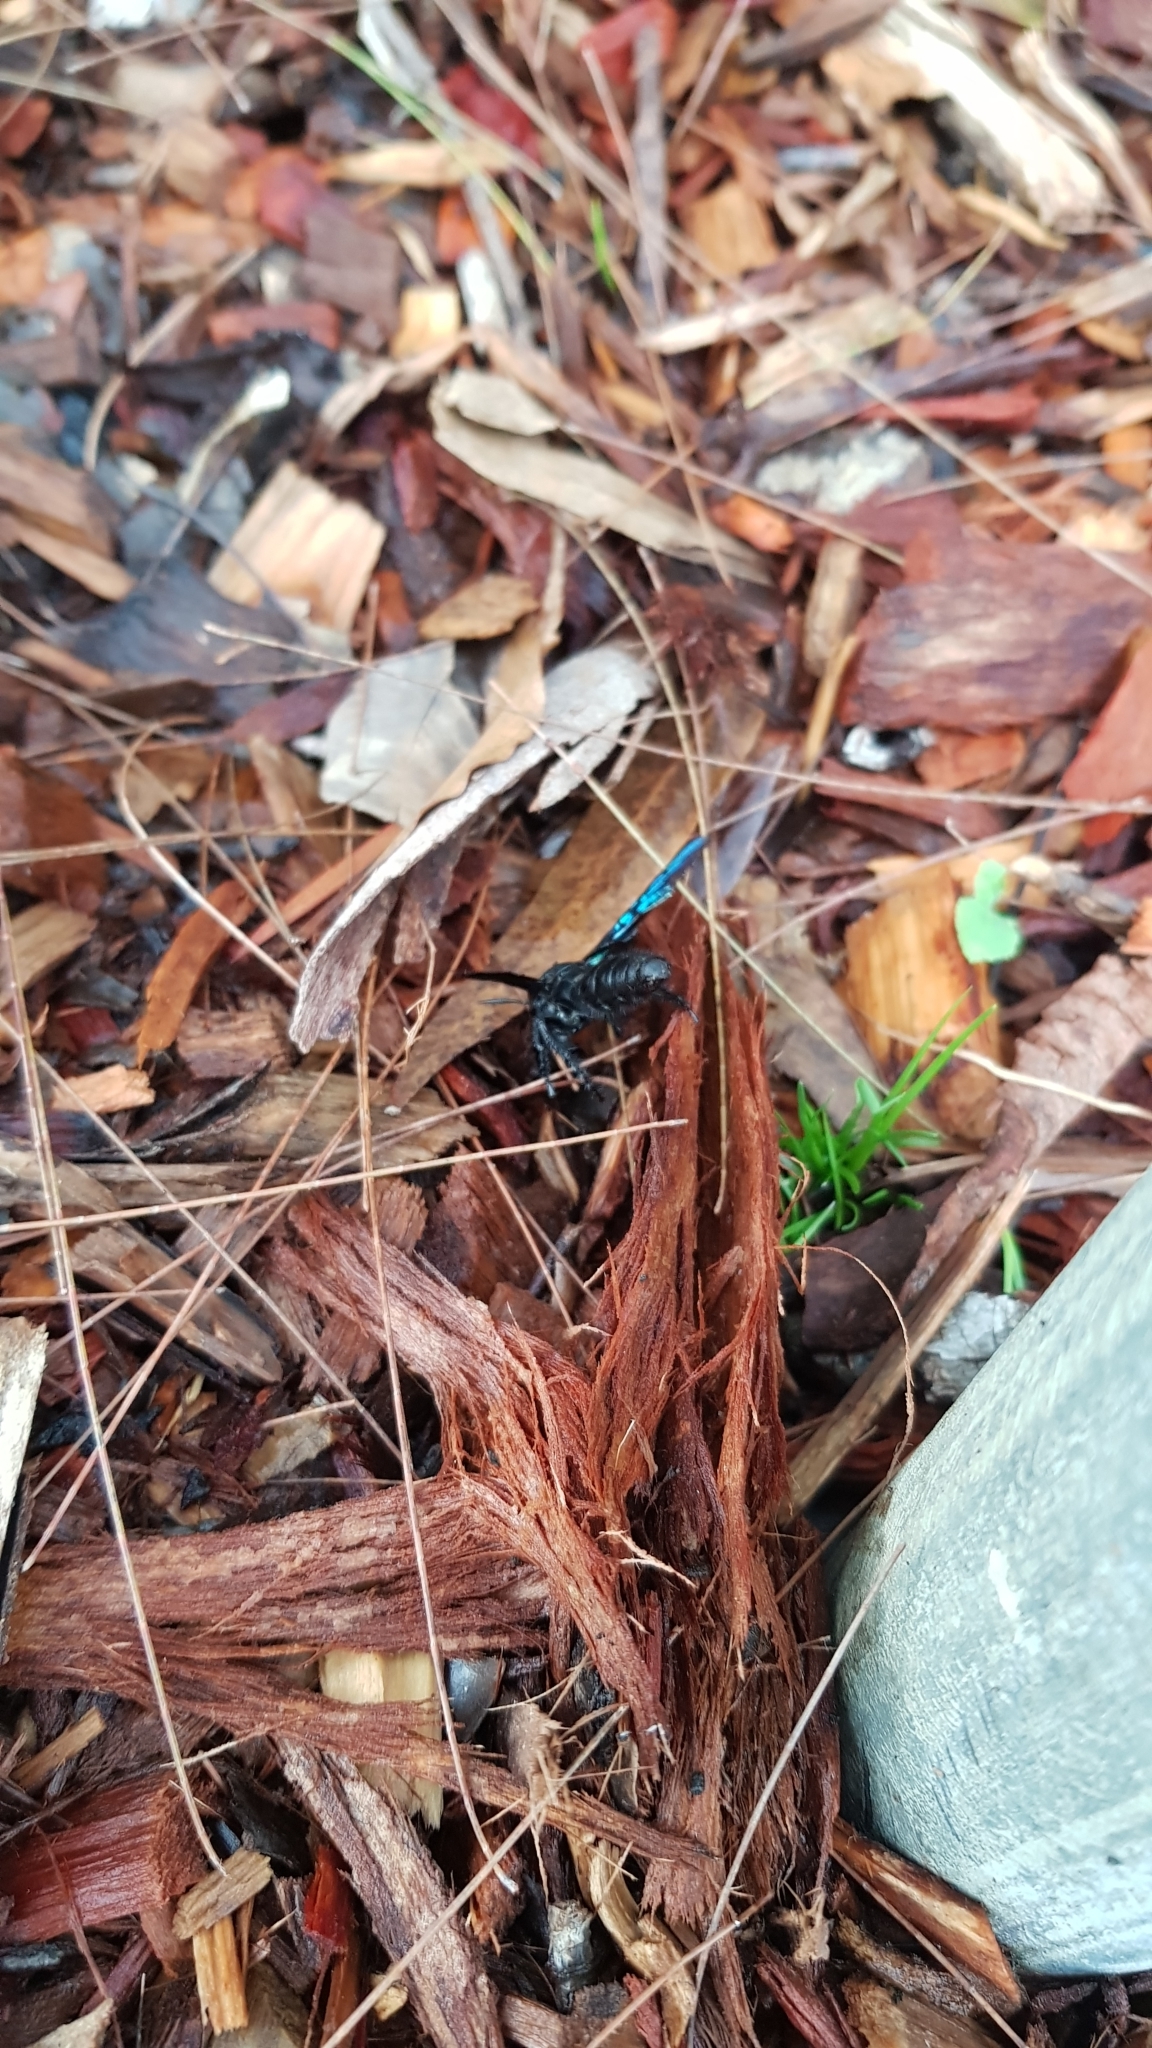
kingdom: Animalia
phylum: Arthropoda
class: Insecta
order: Hymenoptera
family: Scoliidae
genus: Austroscolia
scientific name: Austroscolia
